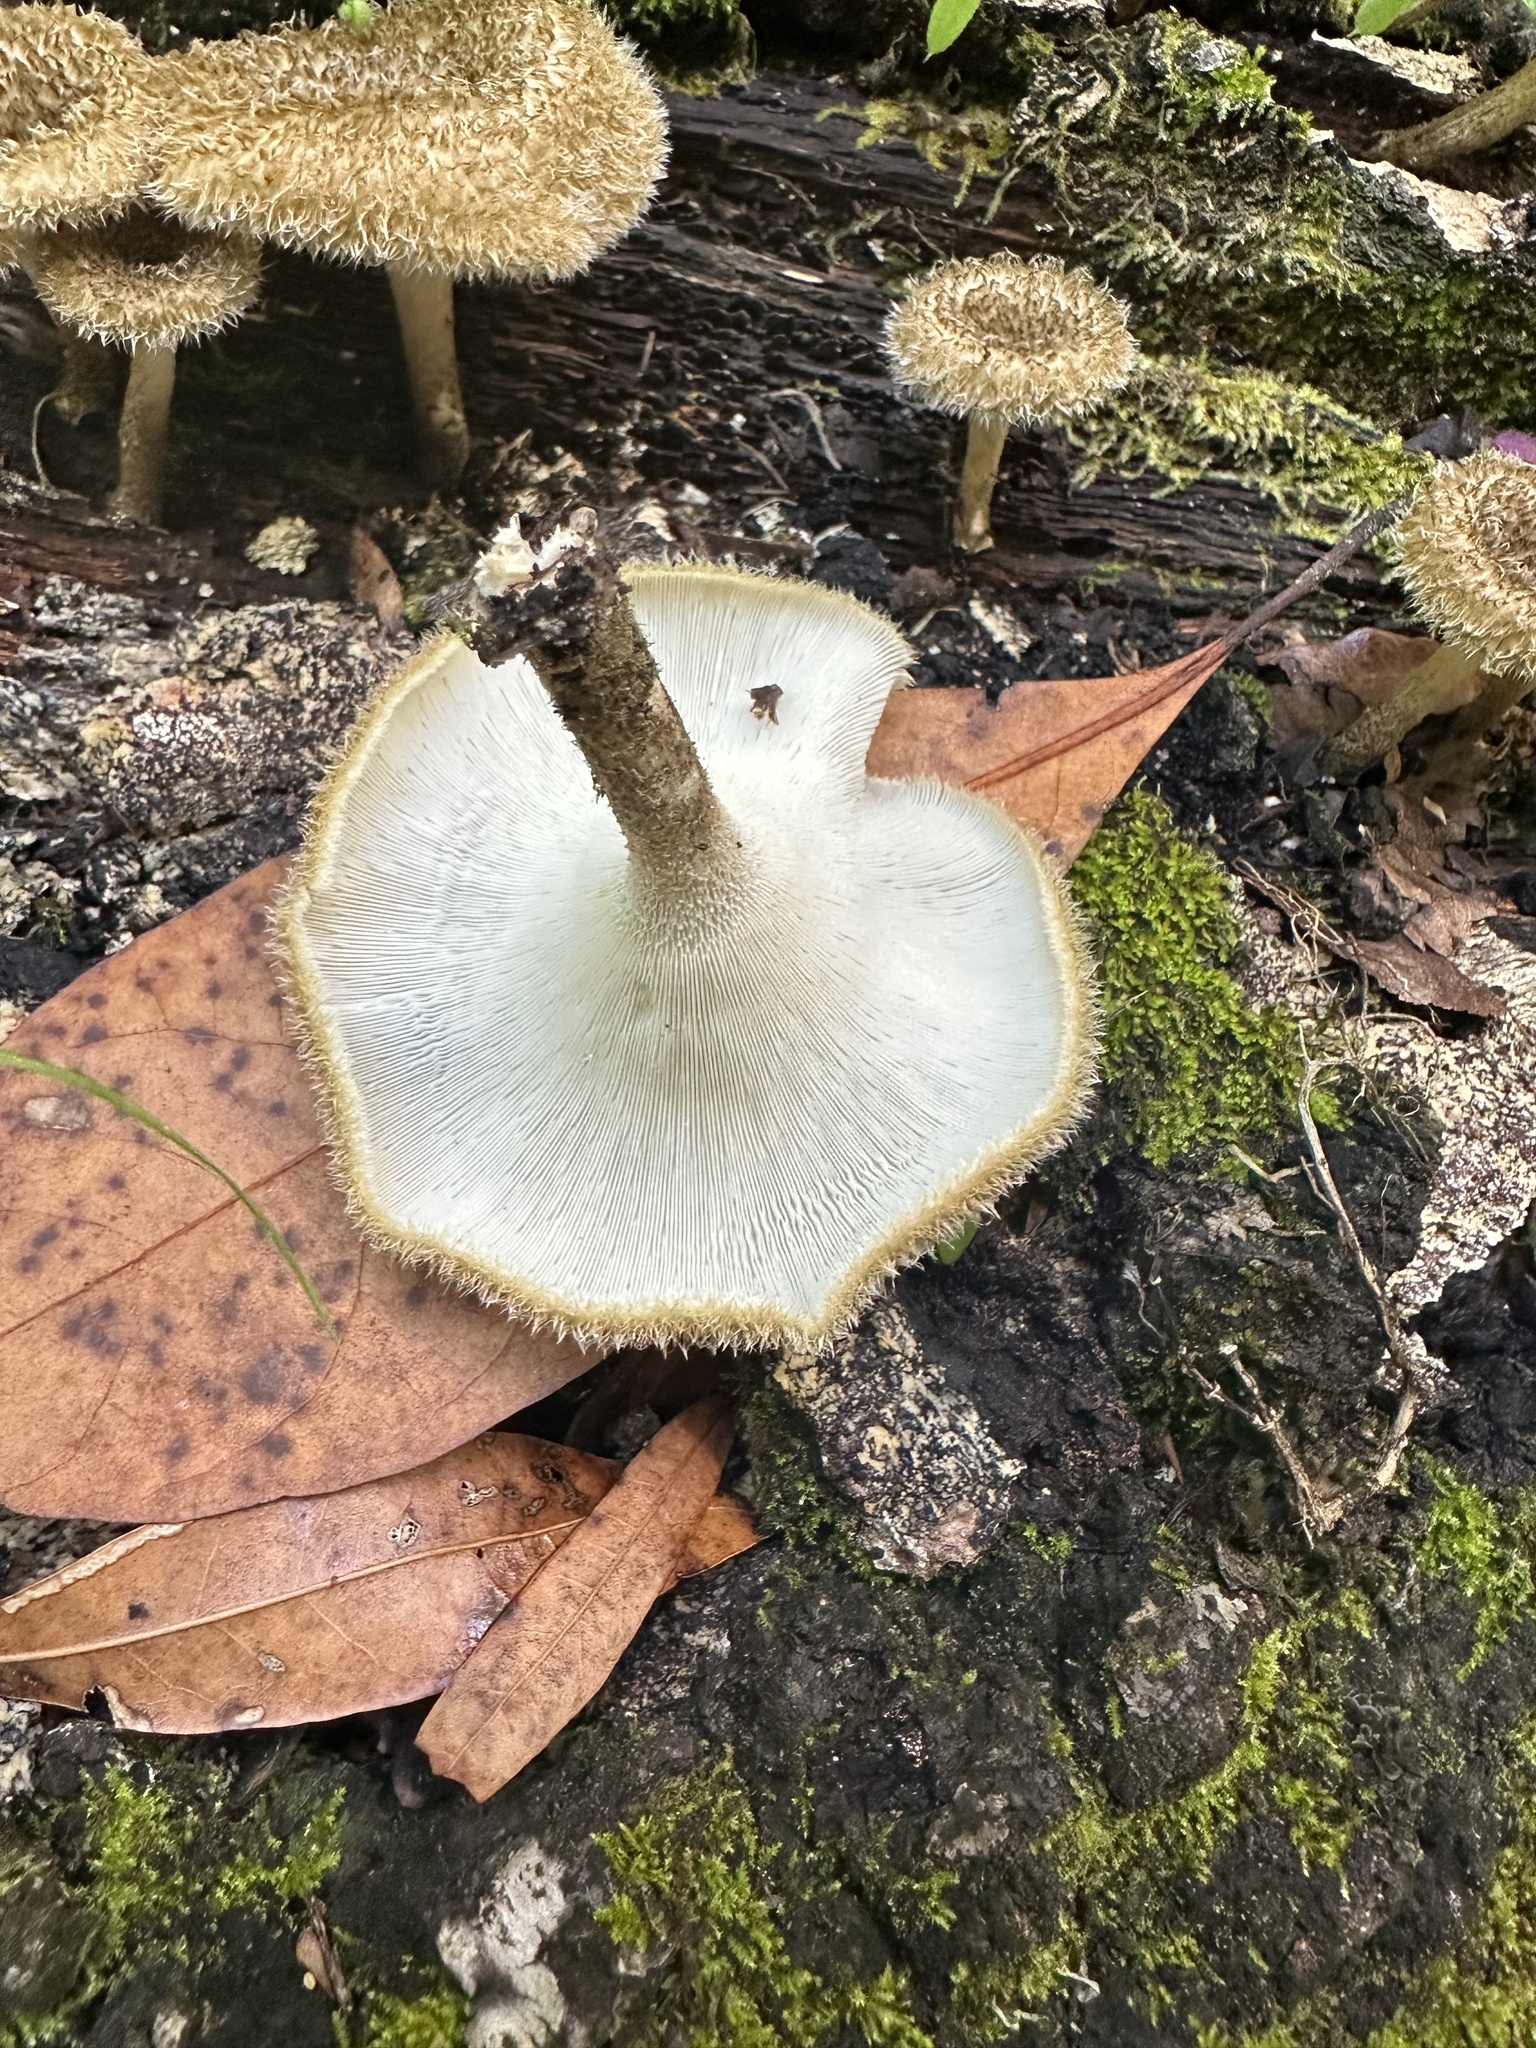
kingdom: Fungi
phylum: Basidiomycota
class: Agaricomycetes
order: Polyporales
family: Polyporaceae
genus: Lentinus
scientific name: Lentinus crinitus
